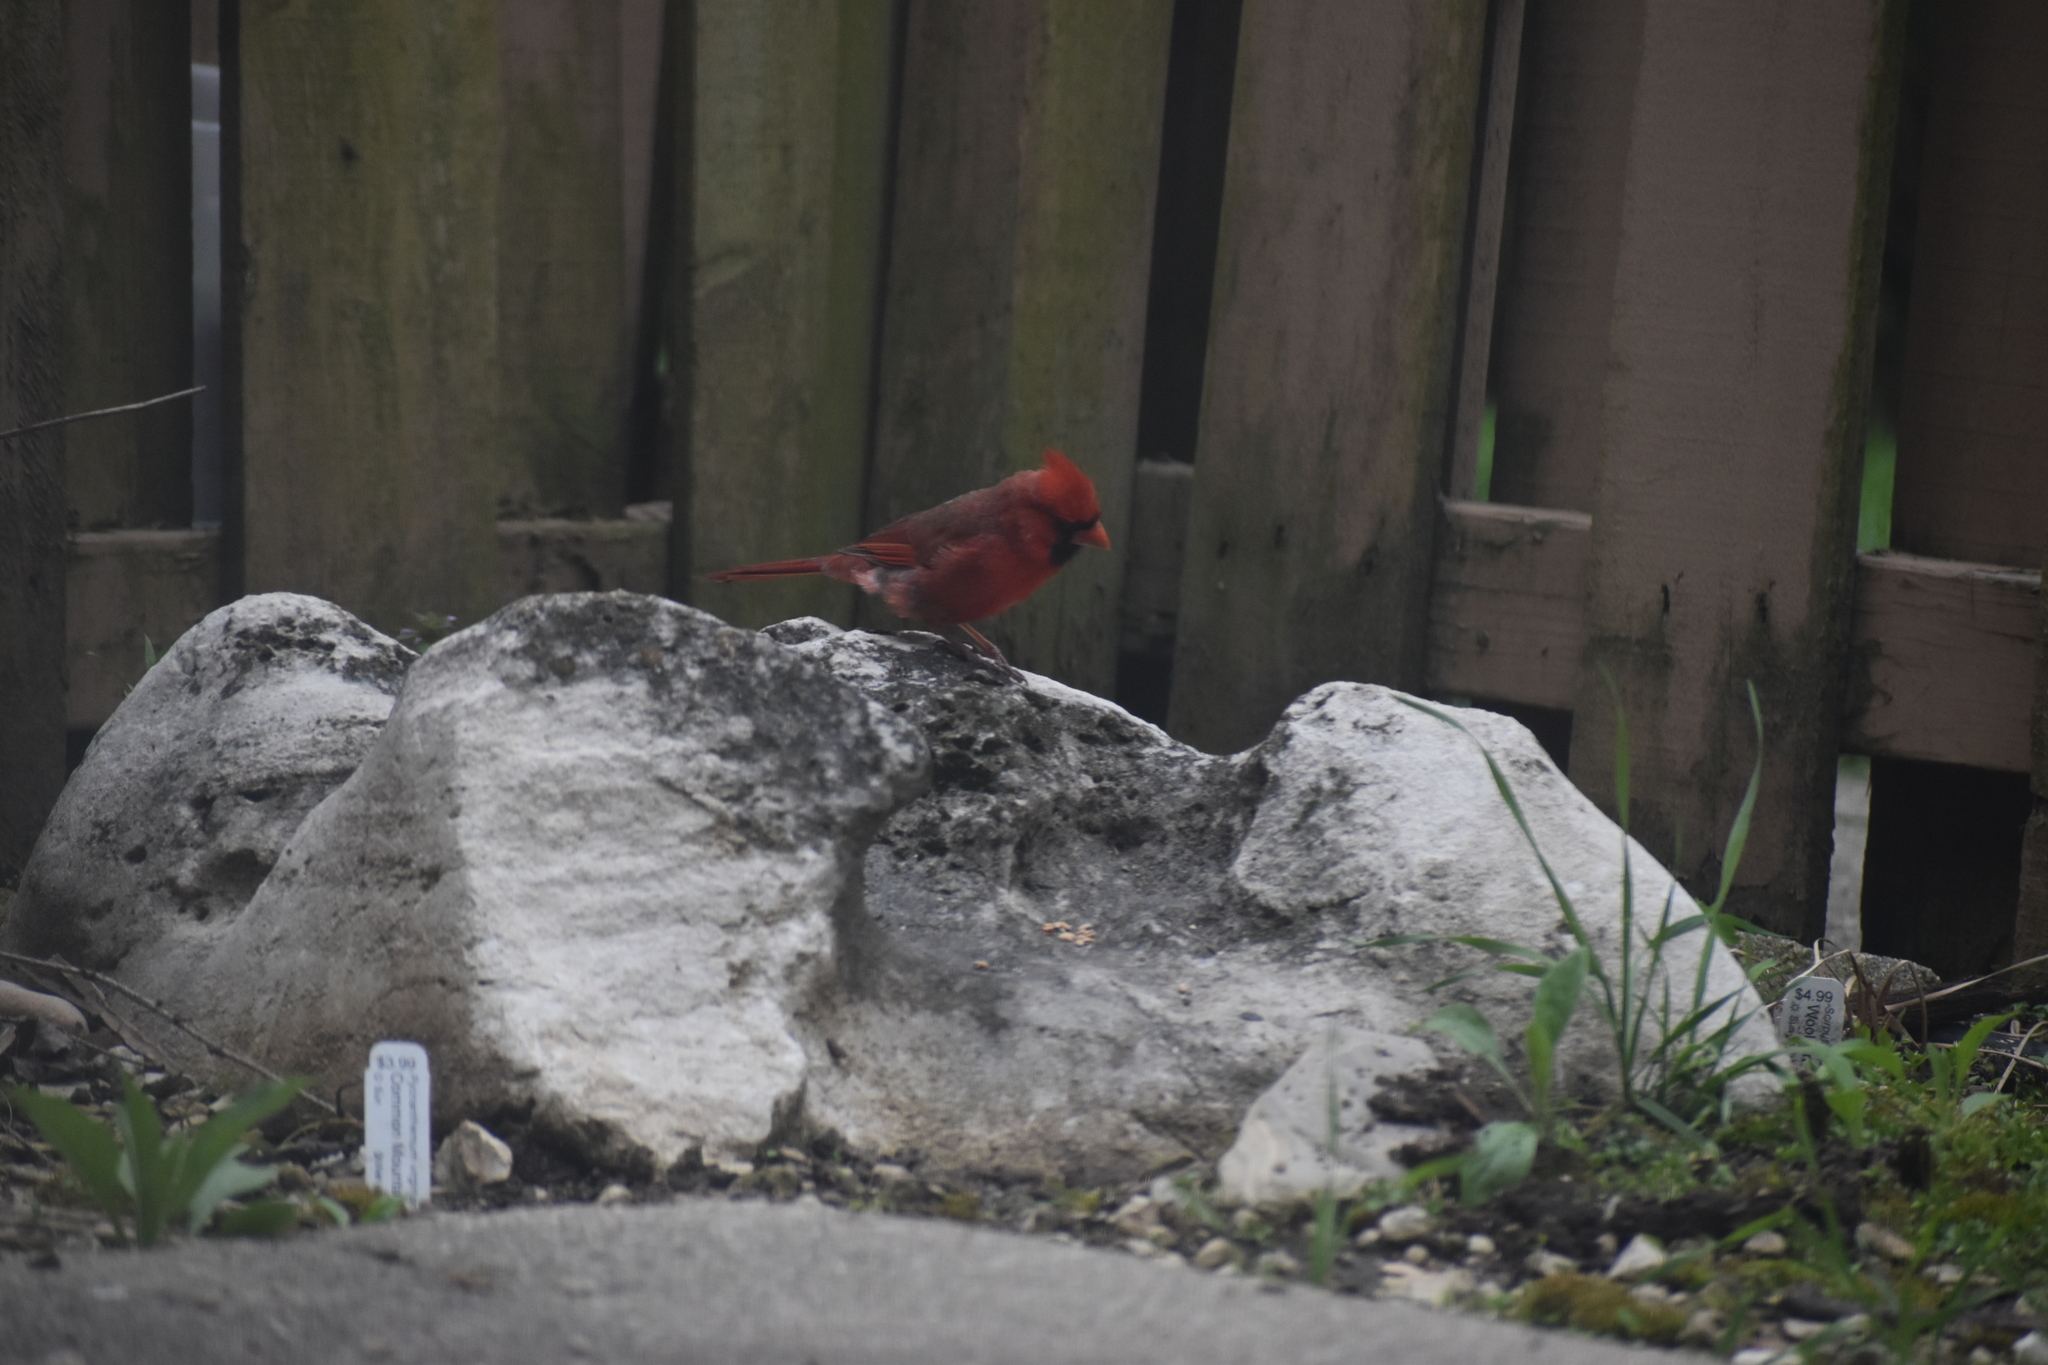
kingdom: Animalia
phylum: Chordata
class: Aves
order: Passeriformes
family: Cardinalidae
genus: Cardinalis
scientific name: Cardinalis cardinalis
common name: Northern cardinal
